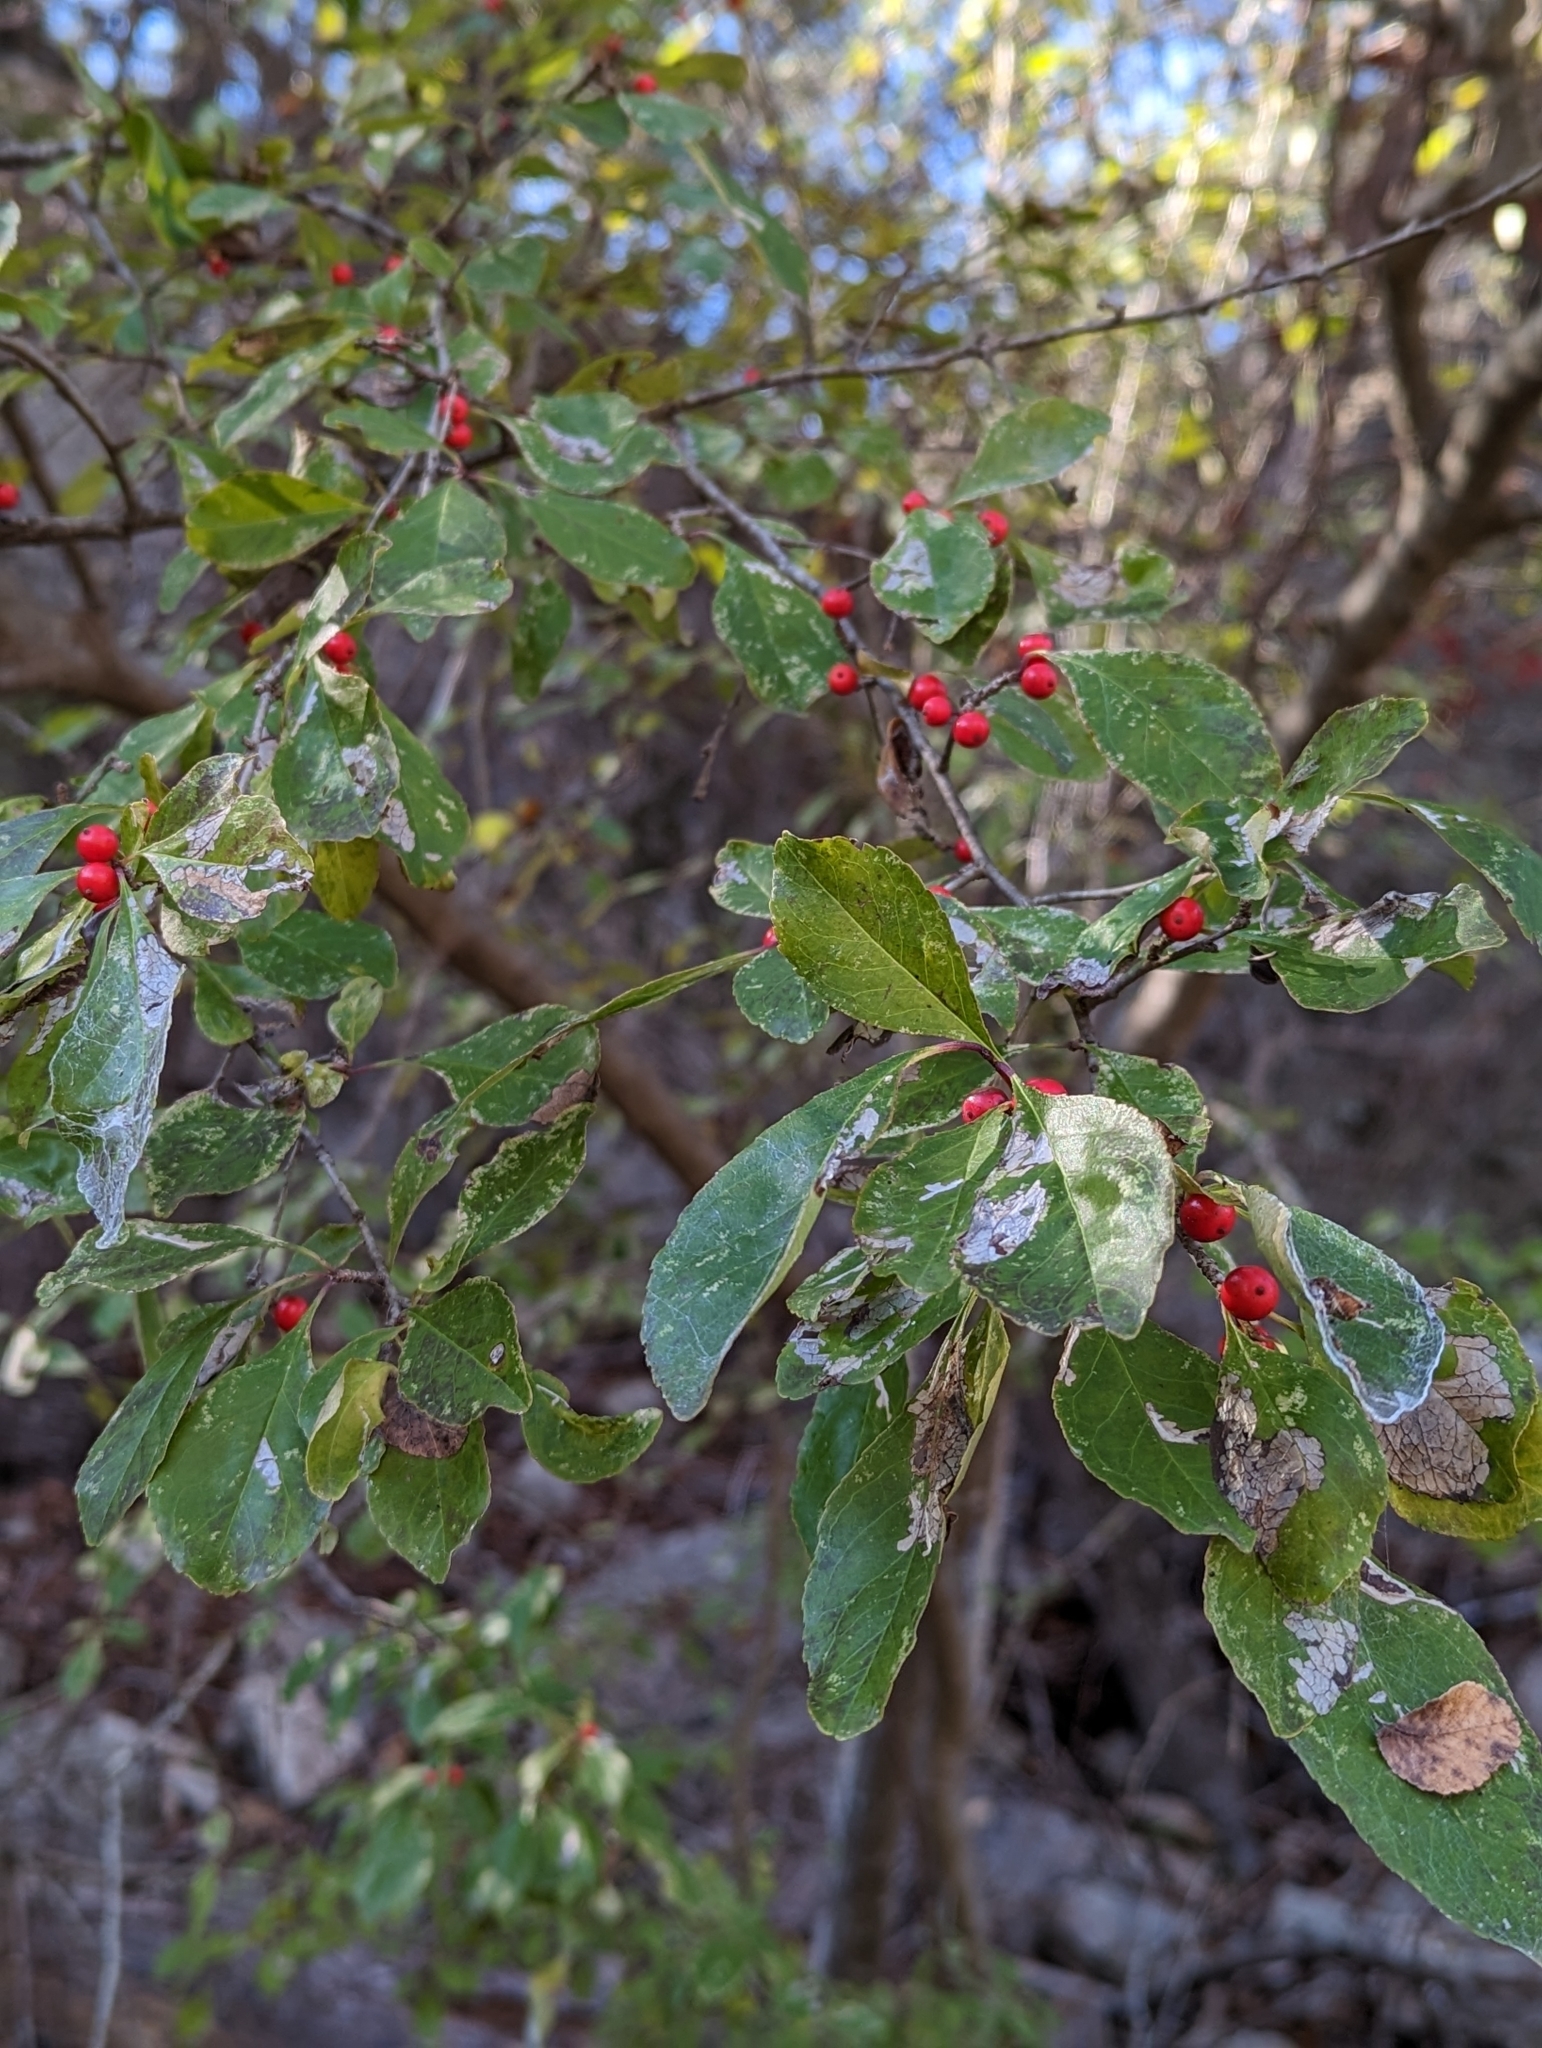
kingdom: Plantae
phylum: Tracheophyta
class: Magnoliopsida
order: Aquifoliales
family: Aquifoliaceae
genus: Ilex
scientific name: Ilex decidua
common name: Possum-haw
